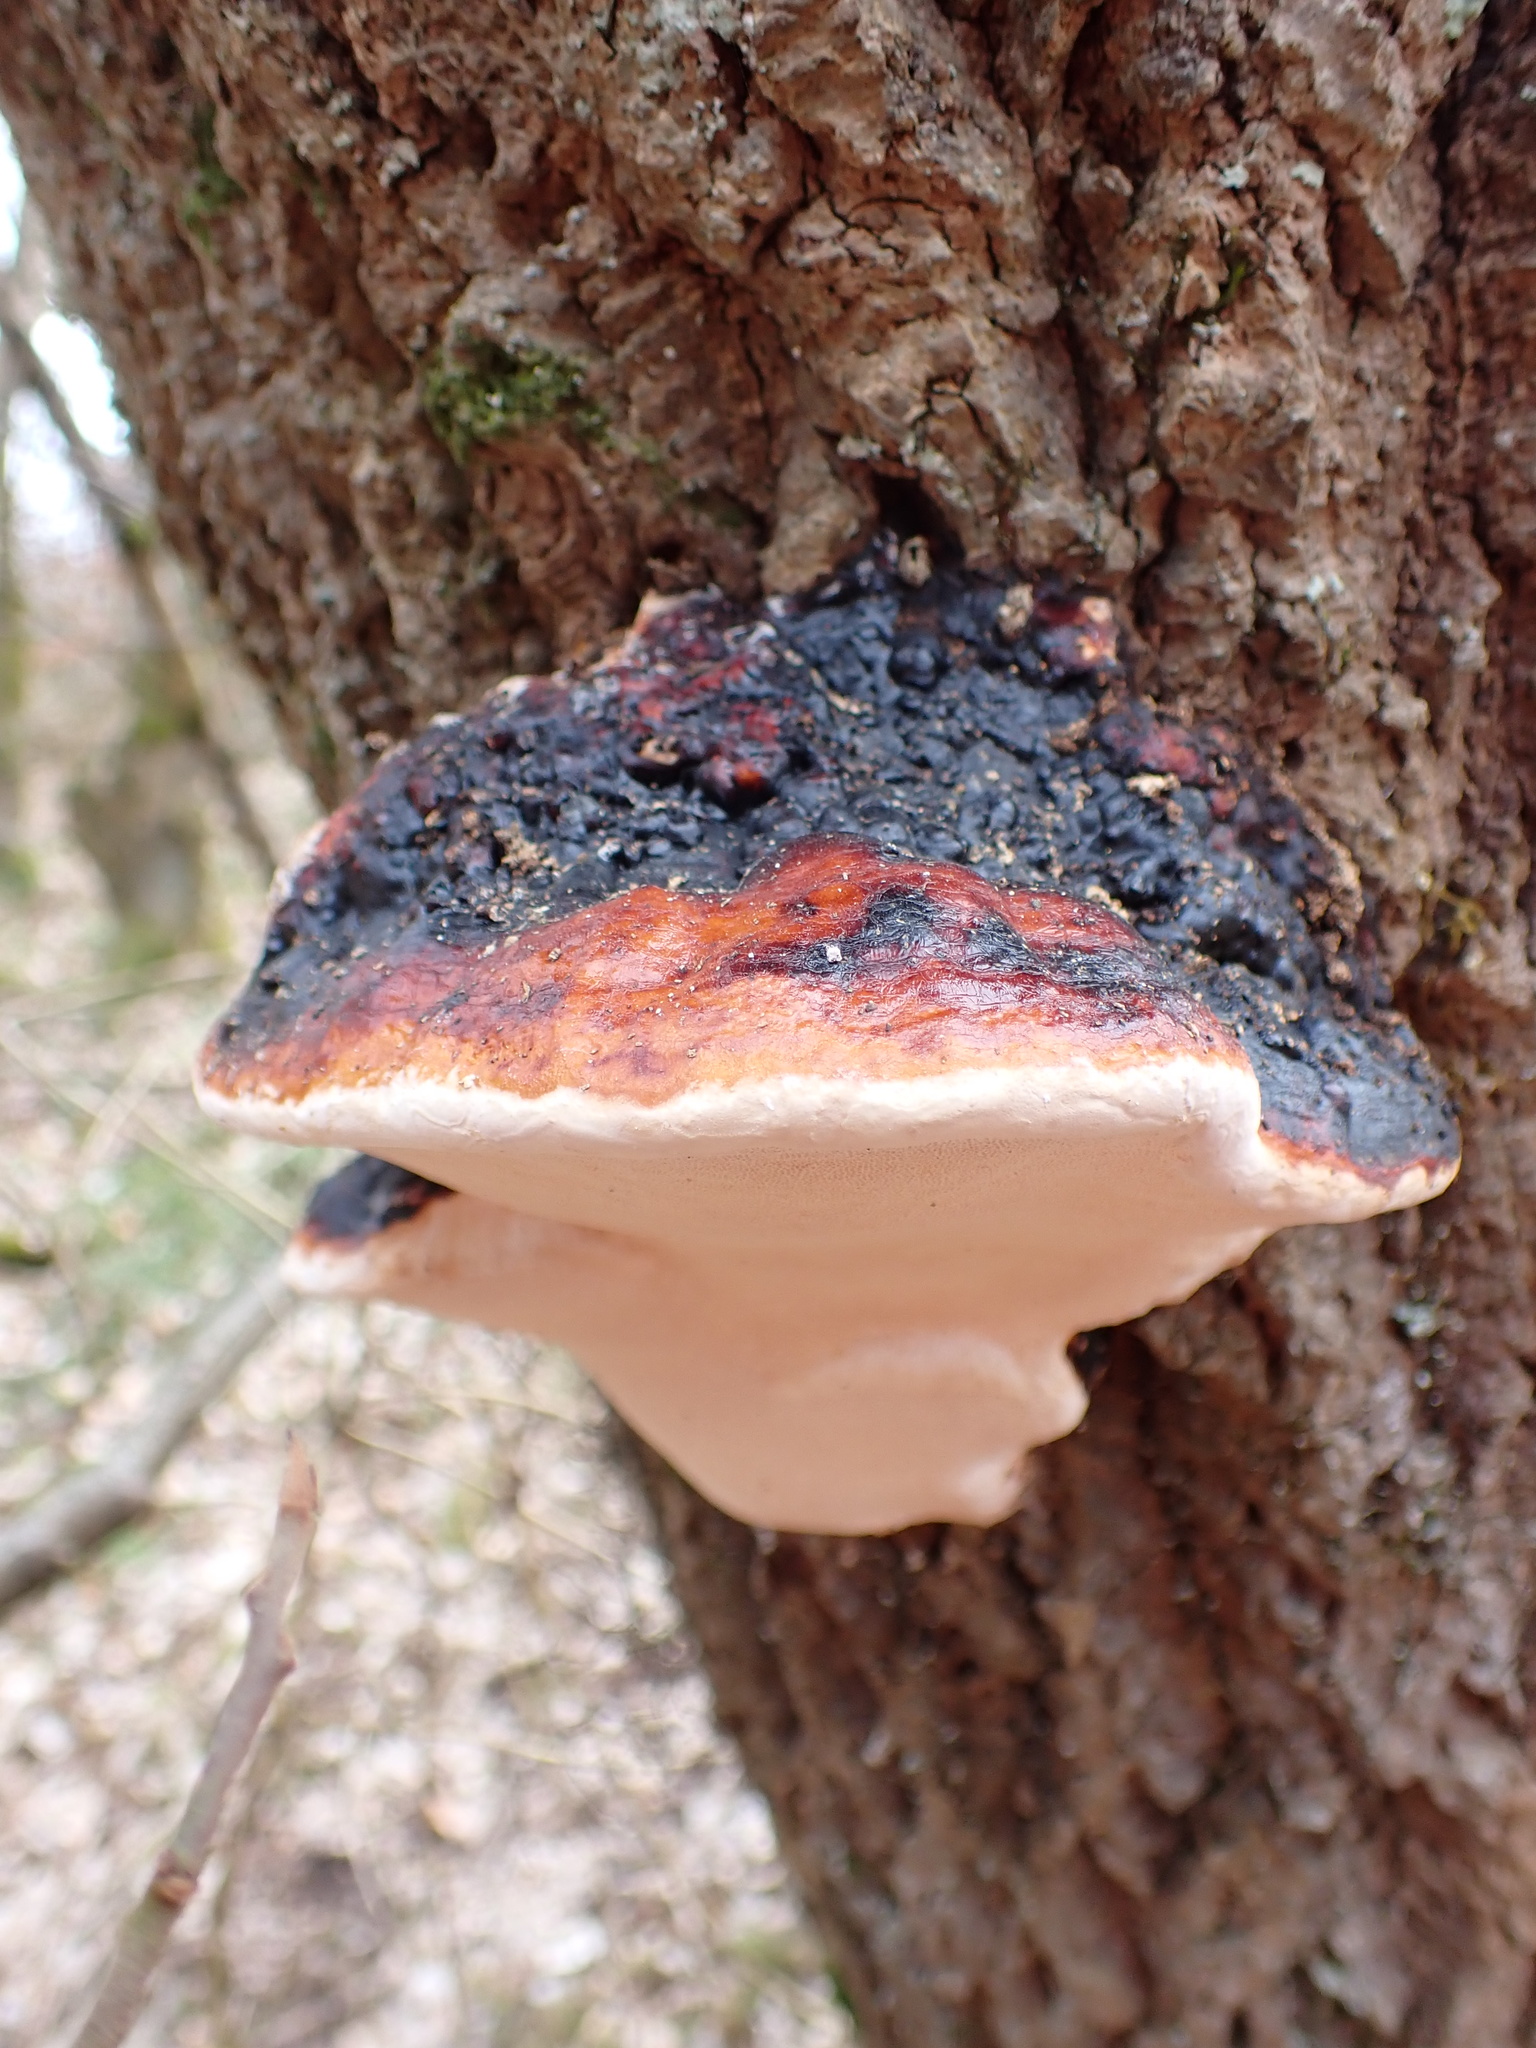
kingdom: Fungi
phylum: Basidiomycota
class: Agaricomycetes
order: Polyporales
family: Fomitopsidaceae
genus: Fomitopsis
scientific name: Fomitopsis pinicola
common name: Red-belted bracket
